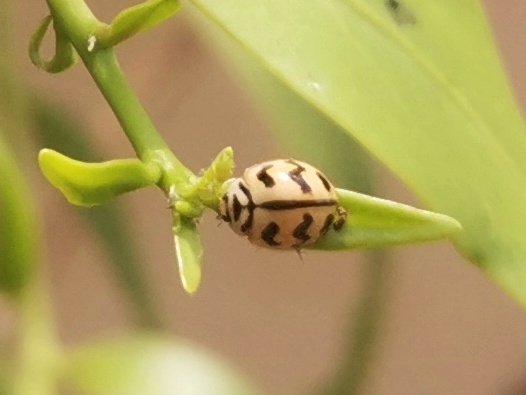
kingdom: Animalia
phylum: Arthropoda
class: Insecta
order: Coleoptera
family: Coccinellidae
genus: Cheilomenes
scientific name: Cheilomenes sexmaculata
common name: Ladybird beetle
